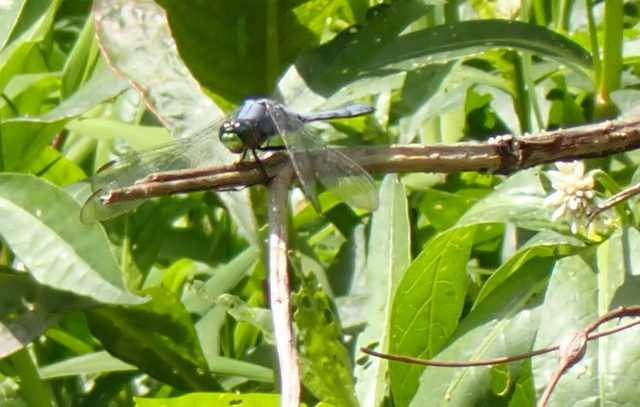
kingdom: Animalia
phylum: Arthropoda
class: Insecta
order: Odonata
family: Libellulidae
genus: Erythemis
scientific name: Erythemis simplicicollis
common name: Eastern pondhawk
